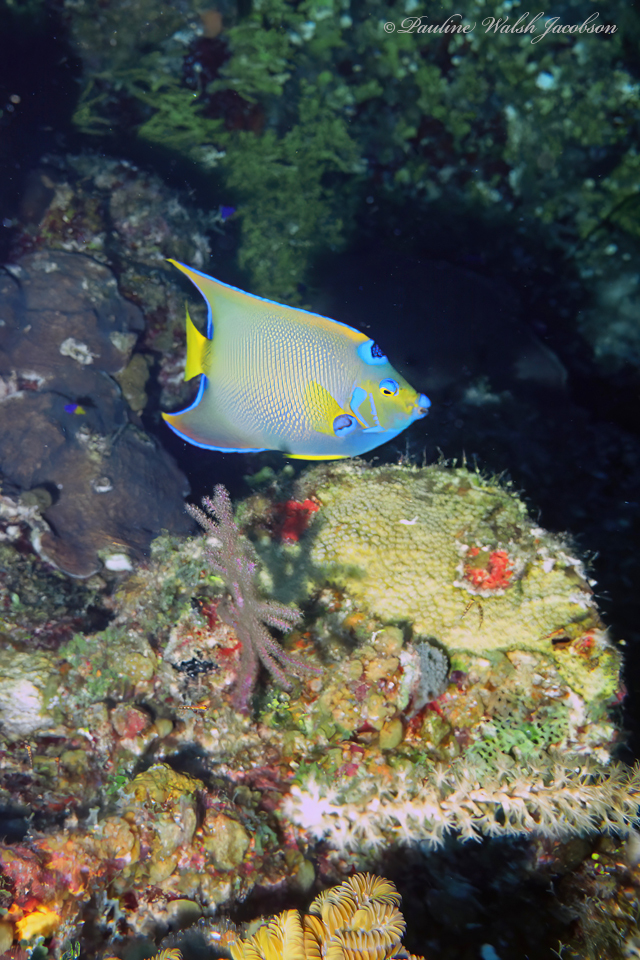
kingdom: Animalia
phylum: Chordata
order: Perciformes
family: Pomacanthidae
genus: Holacanthus
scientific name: Holacanthus ciliaris
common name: Queen angelfish
